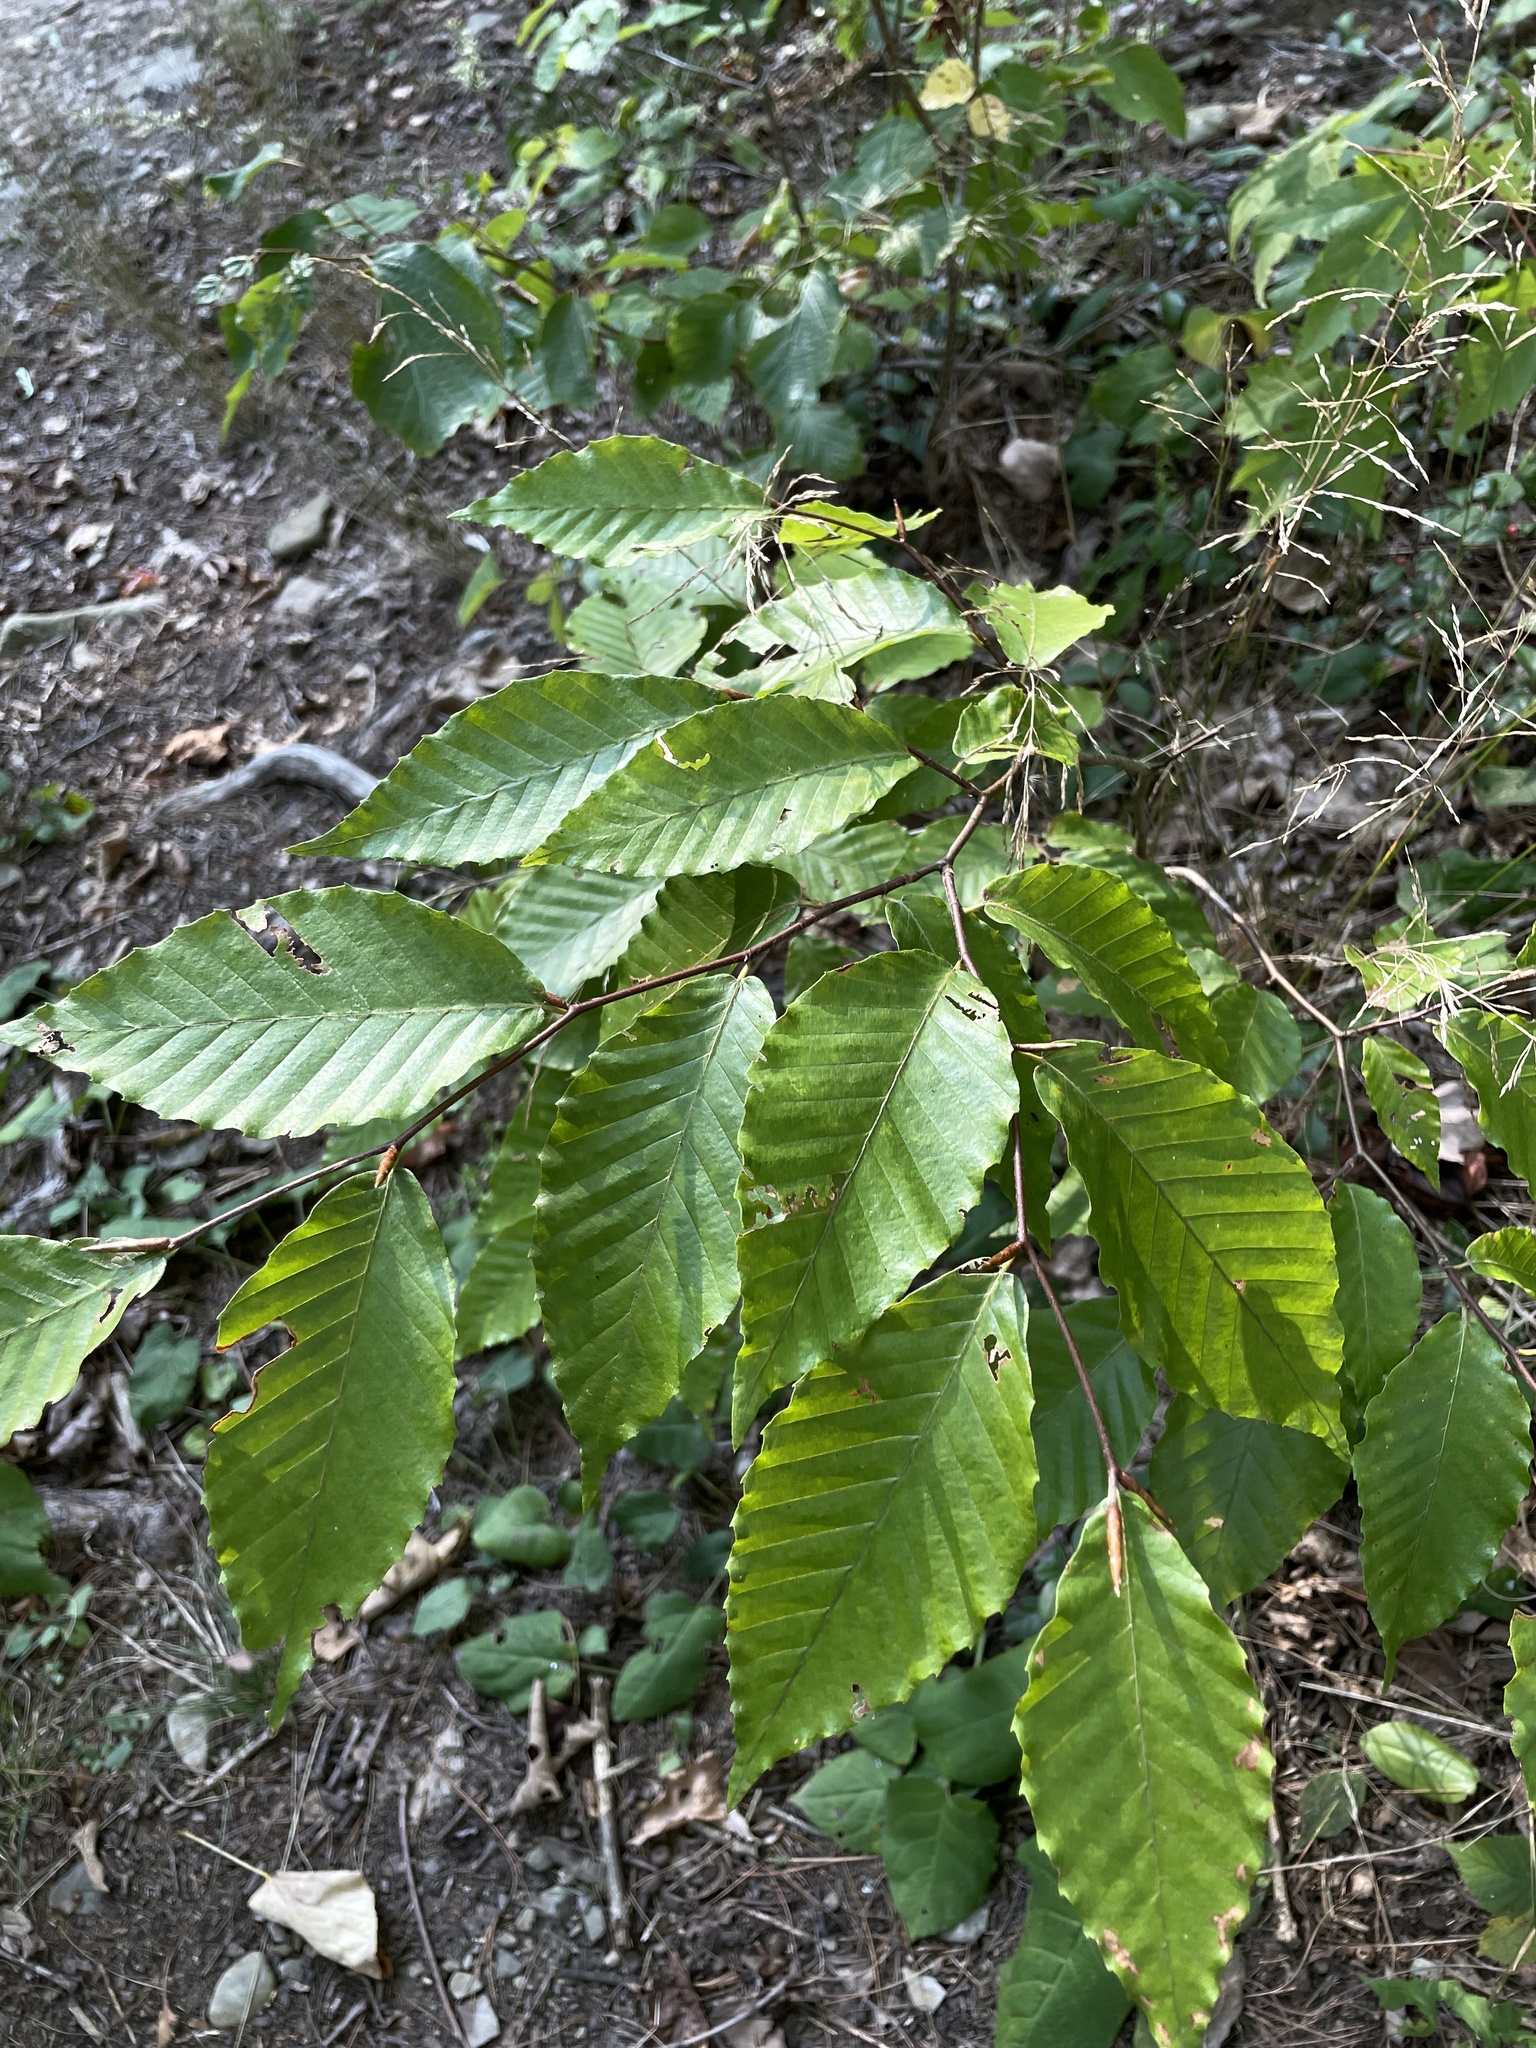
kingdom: Plantae
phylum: Tracheophyta
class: Magnoliopsida
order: Fagales
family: Fagaceae
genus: Fagus
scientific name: Fagus grandifolia
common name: American beech
